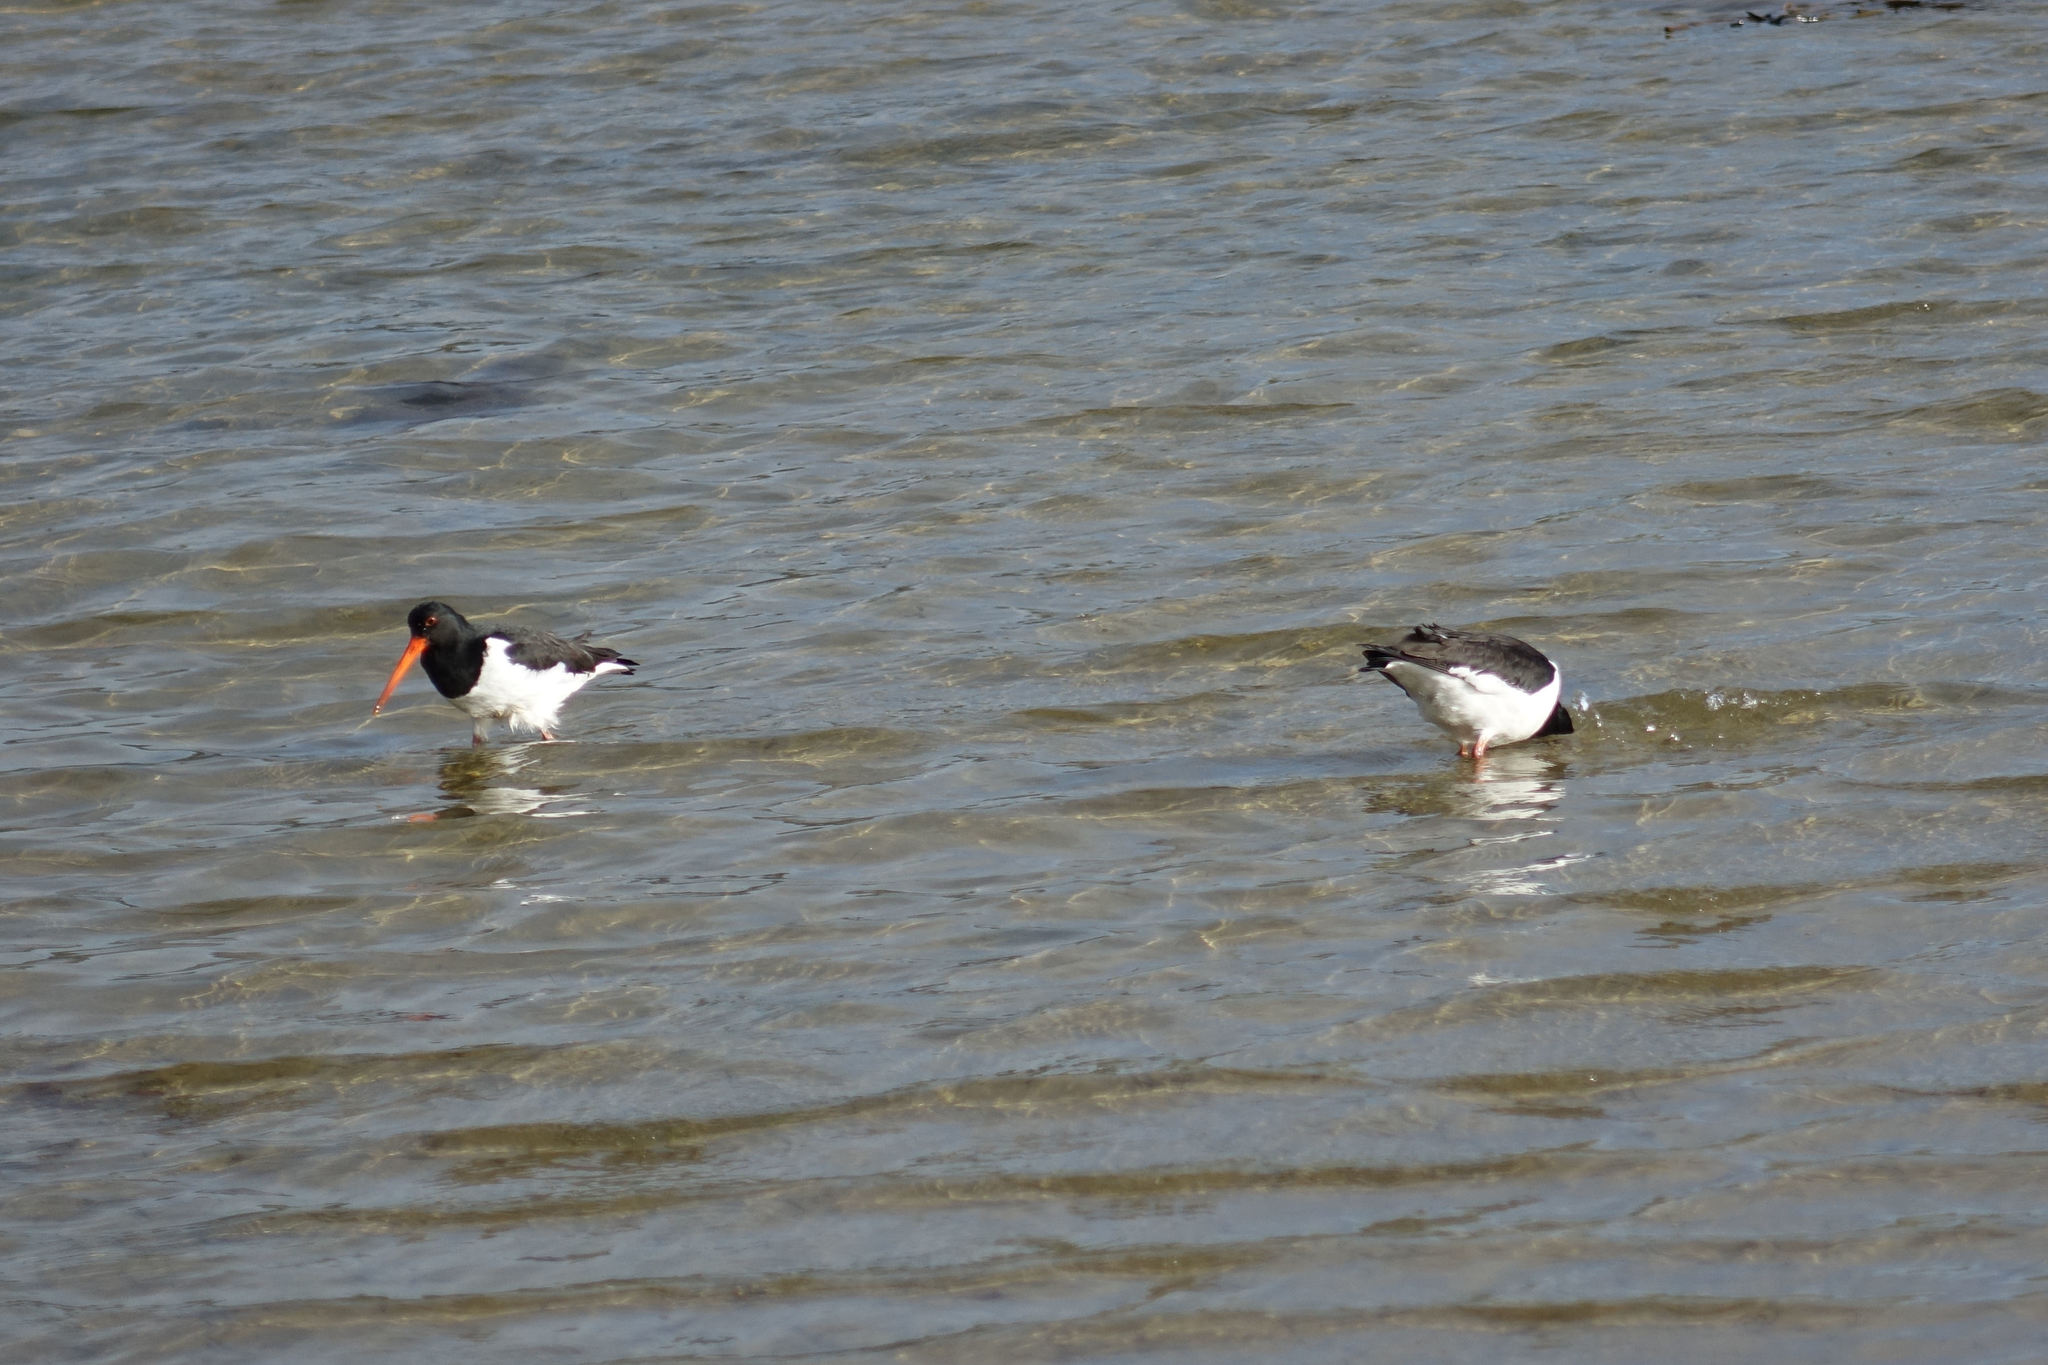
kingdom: Animalia
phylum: Chordata
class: Aves
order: Charadriiformes
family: Haematopodidae
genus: Haematopus
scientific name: Haematopus finschi
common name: South island oystercatcher
